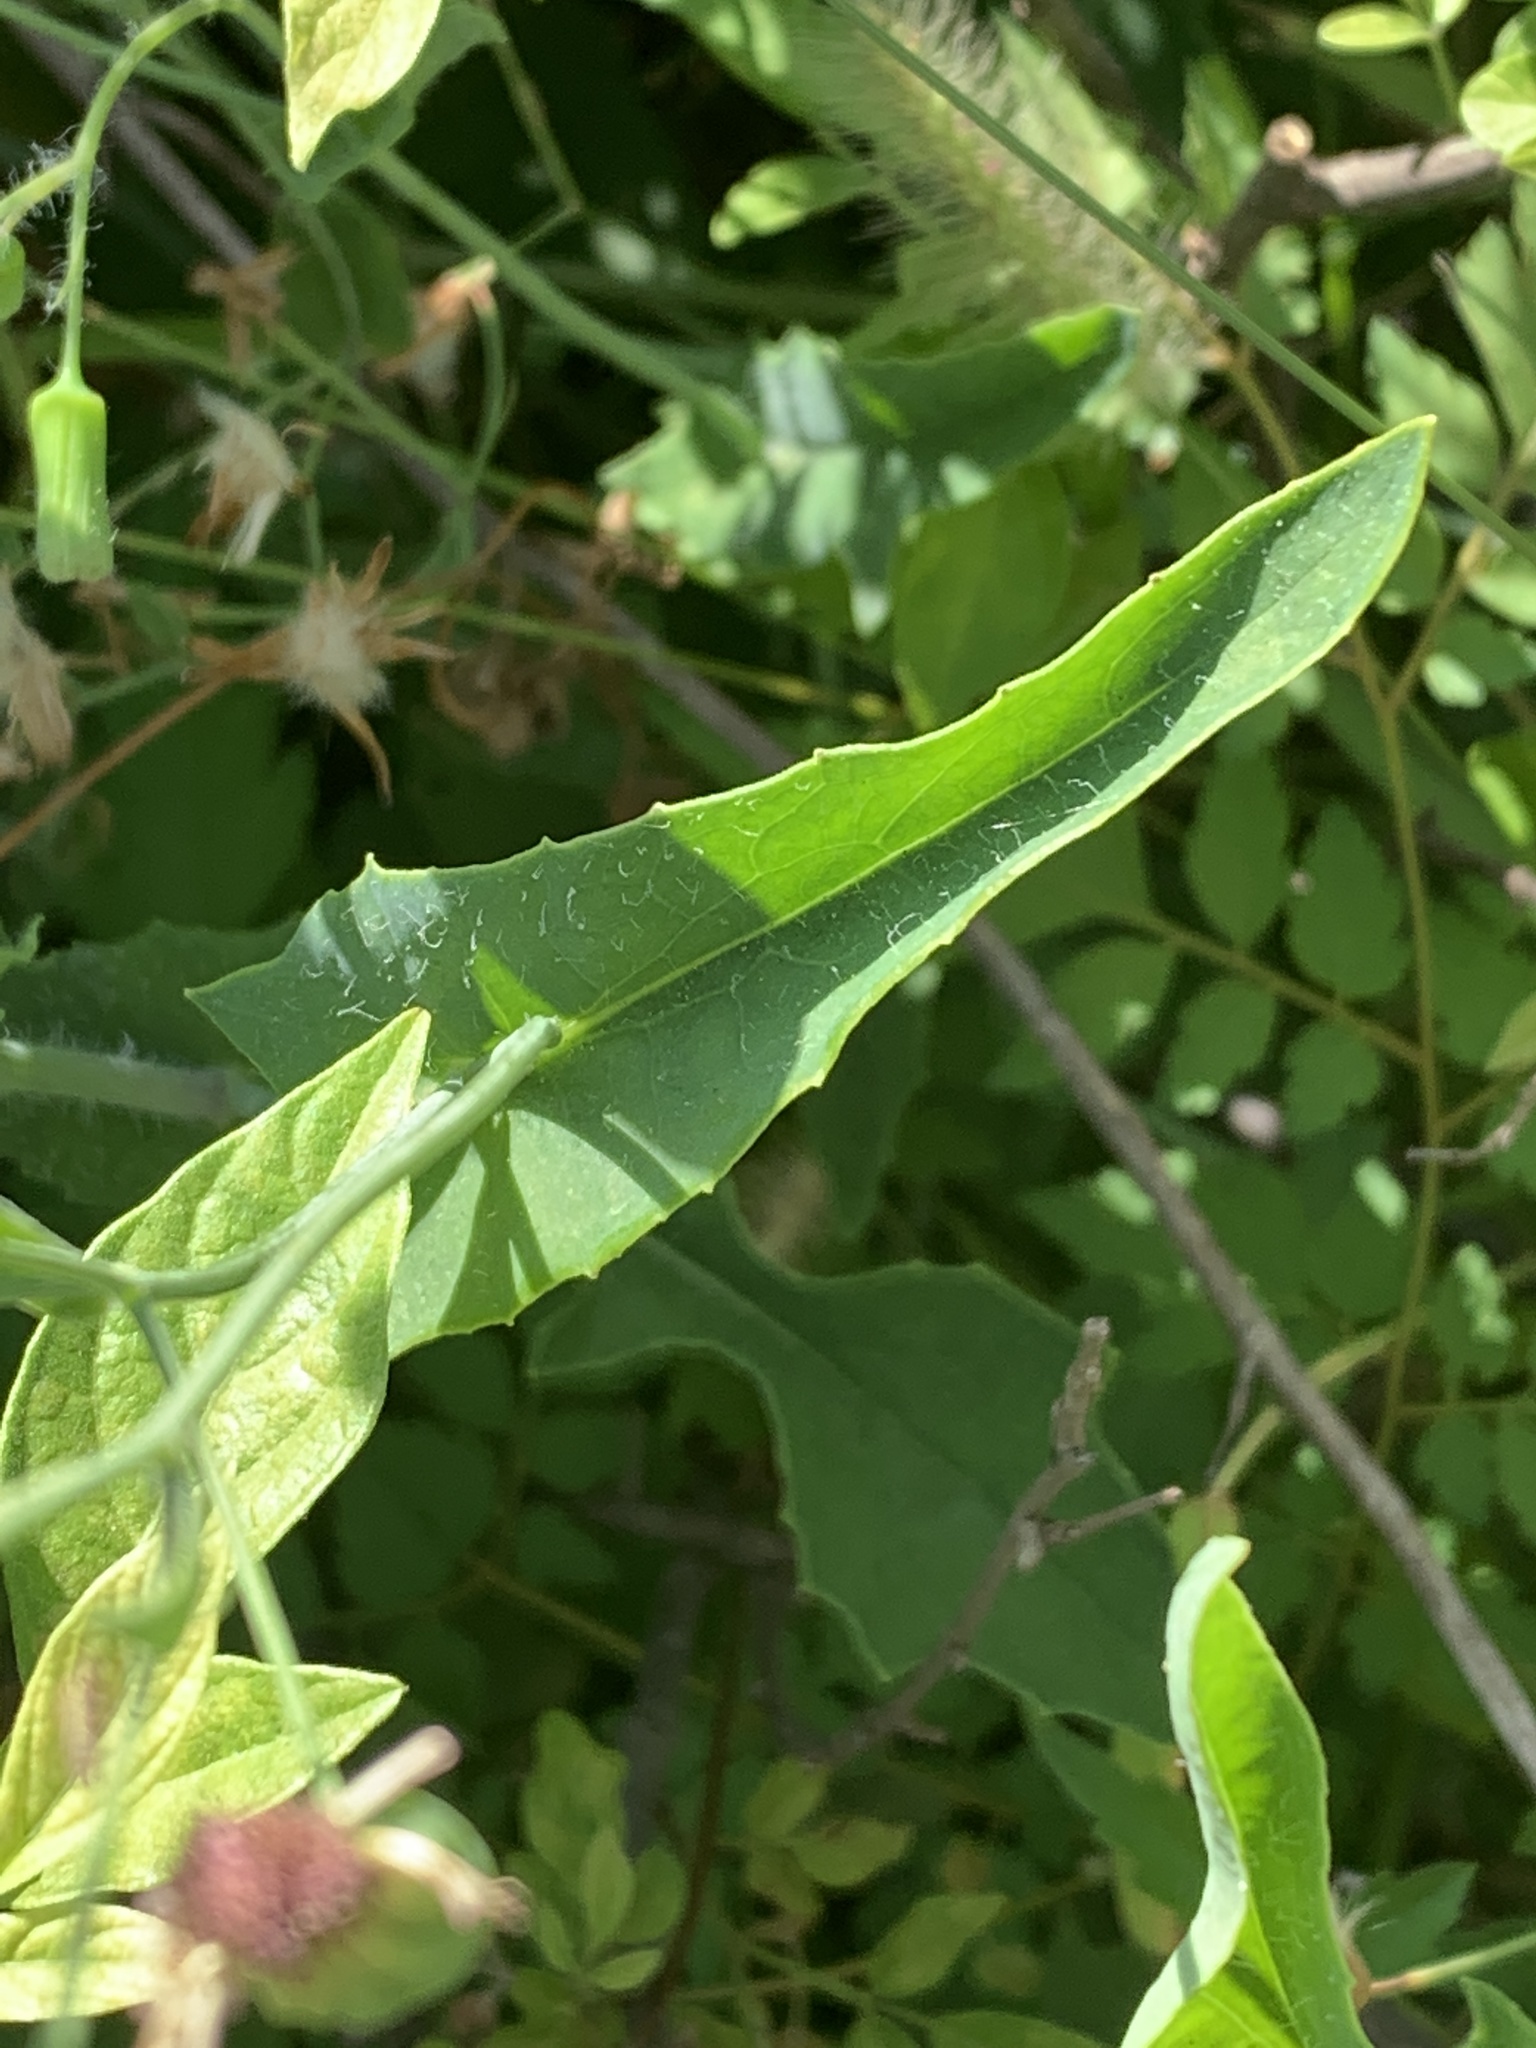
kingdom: Plantae
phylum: Tracheophyta
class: Magnoliopsida
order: Asterales
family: Asteraceae
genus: Emilia
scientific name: Emilia javanica
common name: Tassel-flower
